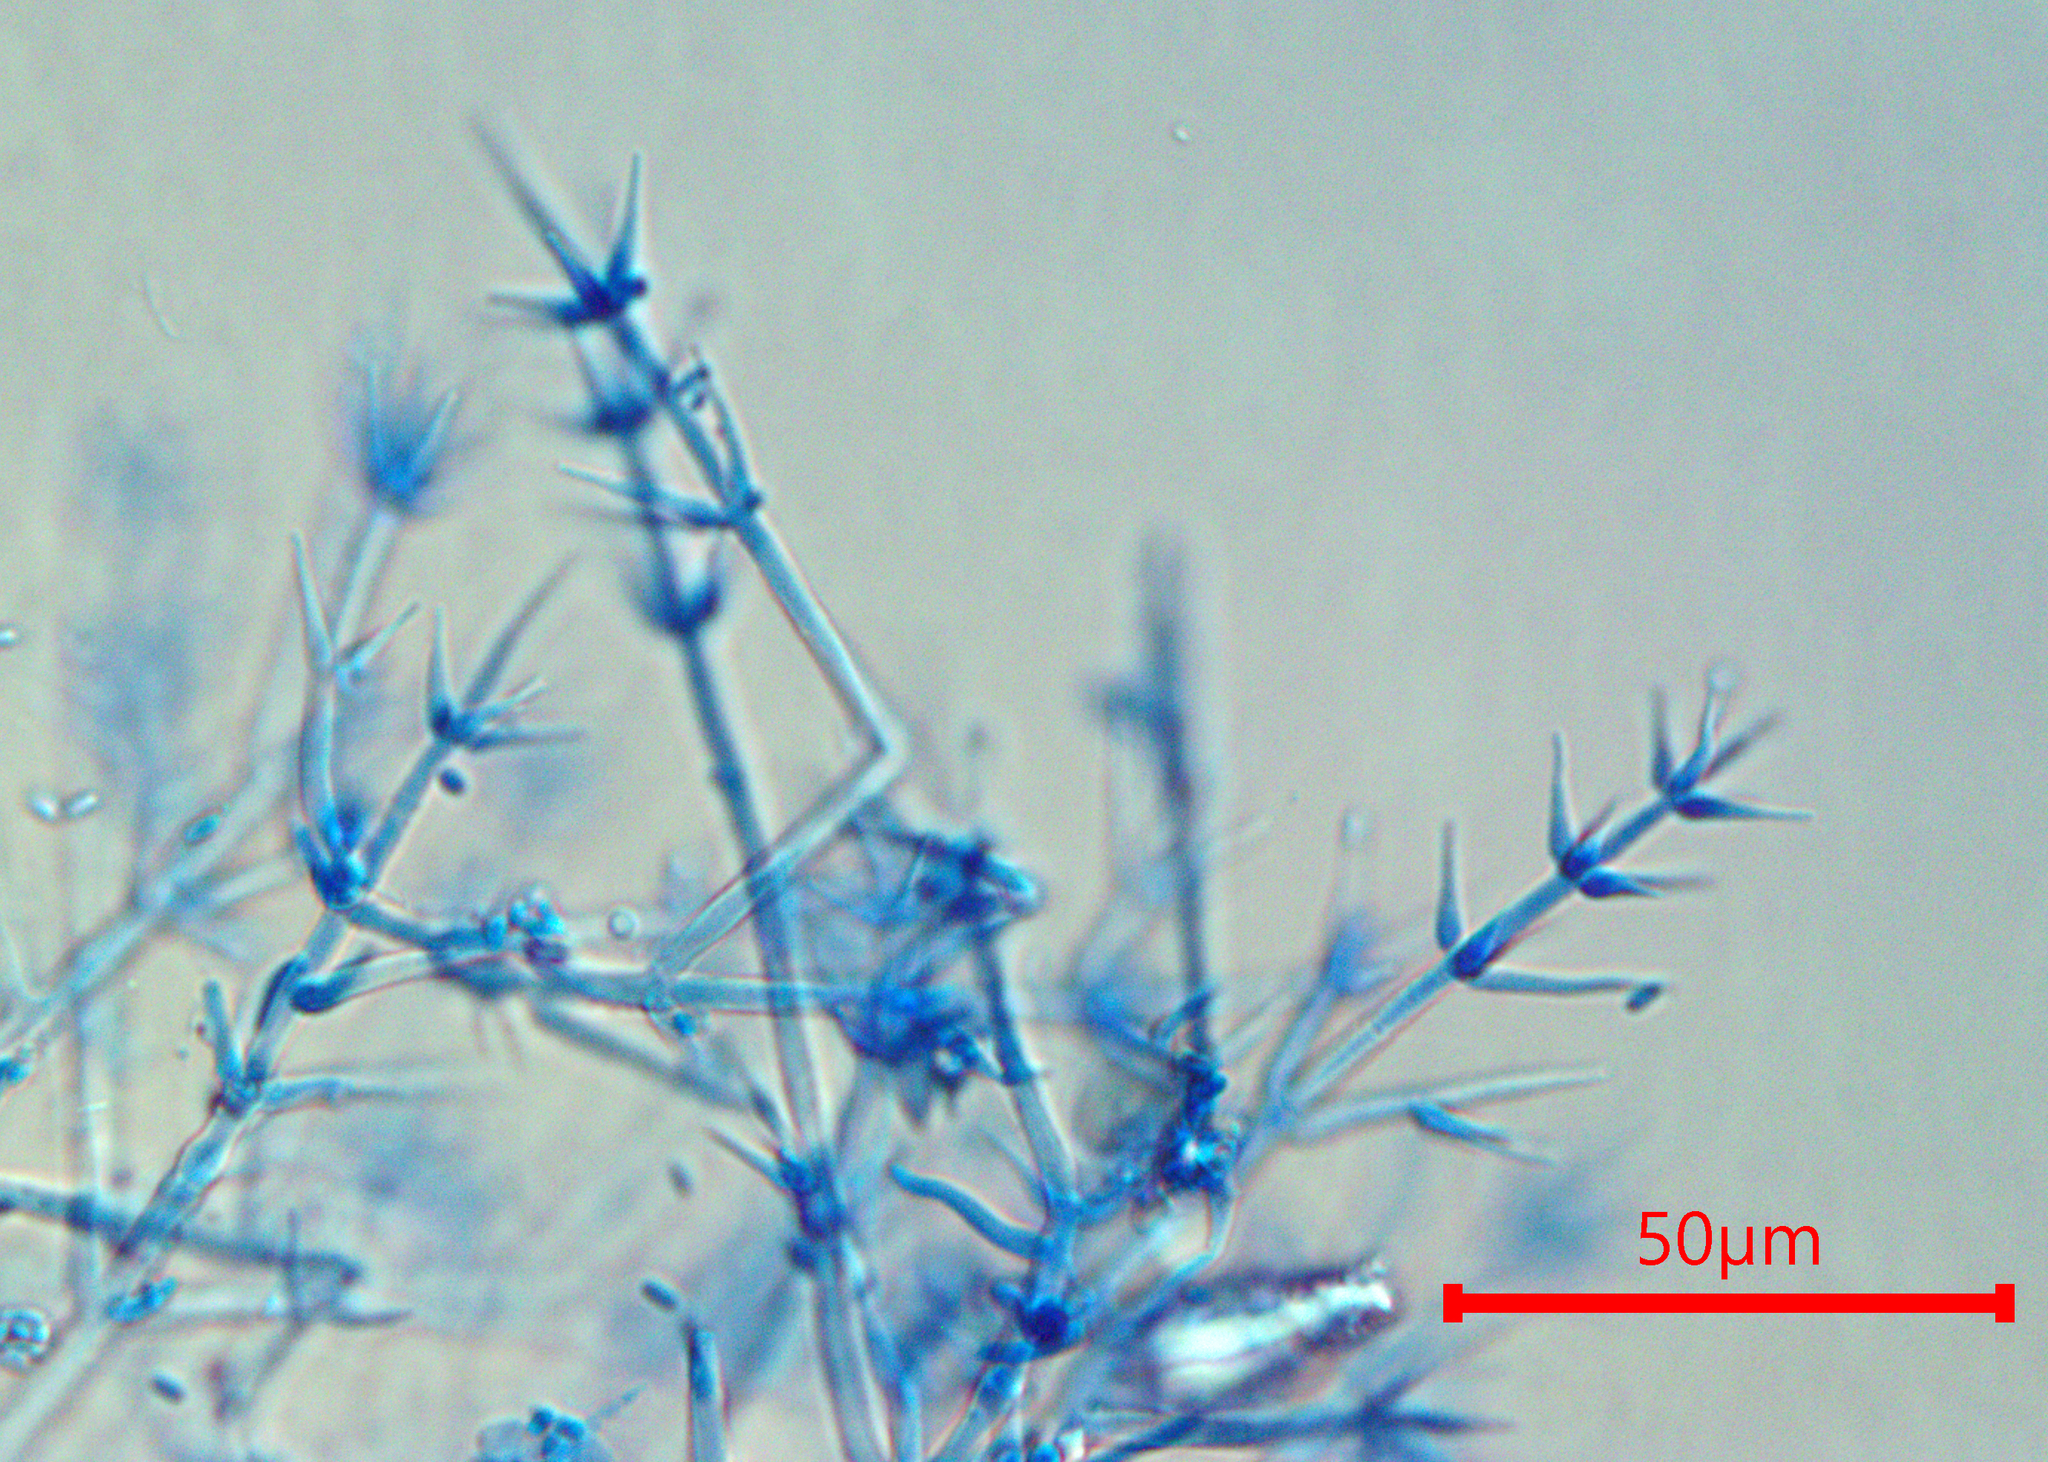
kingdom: Fungi
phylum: Ascomycota
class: Sordariomycetes
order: Hypocreales
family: Calcarisporiaceae
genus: Calcarisporium
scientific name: Calcarisporium arbuscula
